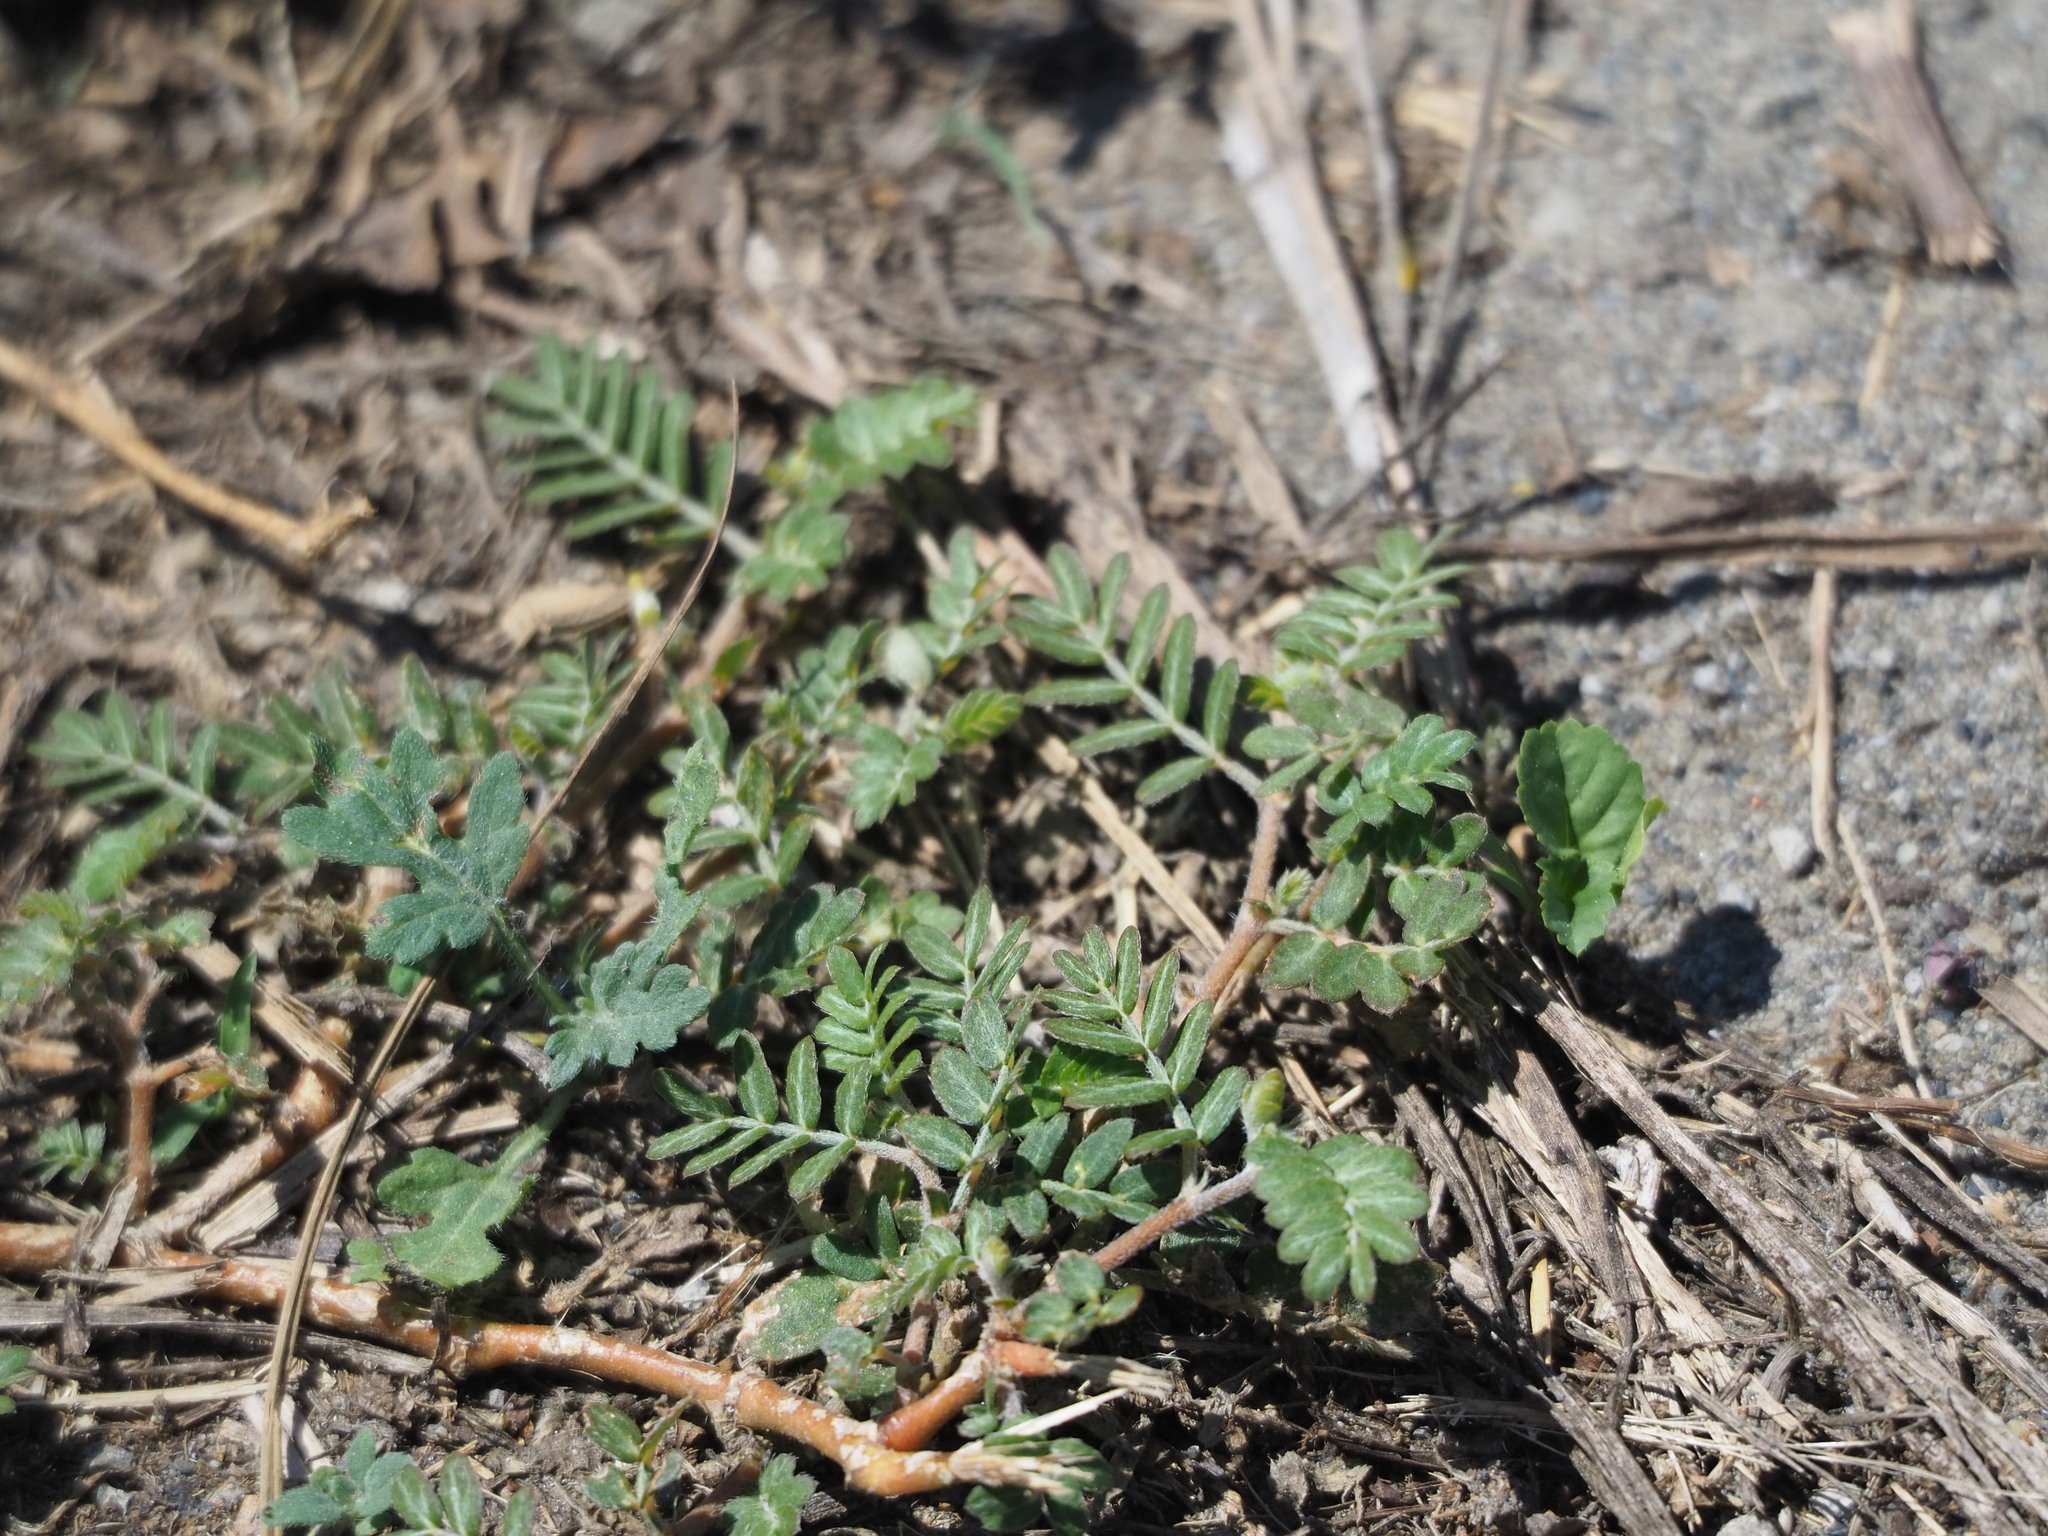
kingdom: Plantae
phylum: Tracheophyta
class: Magnoliopsida
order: Zygophyllales
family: Zygophyllaceae
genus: Tribulus
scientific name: Tribulus cistoides
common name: Jamaican feverplant
